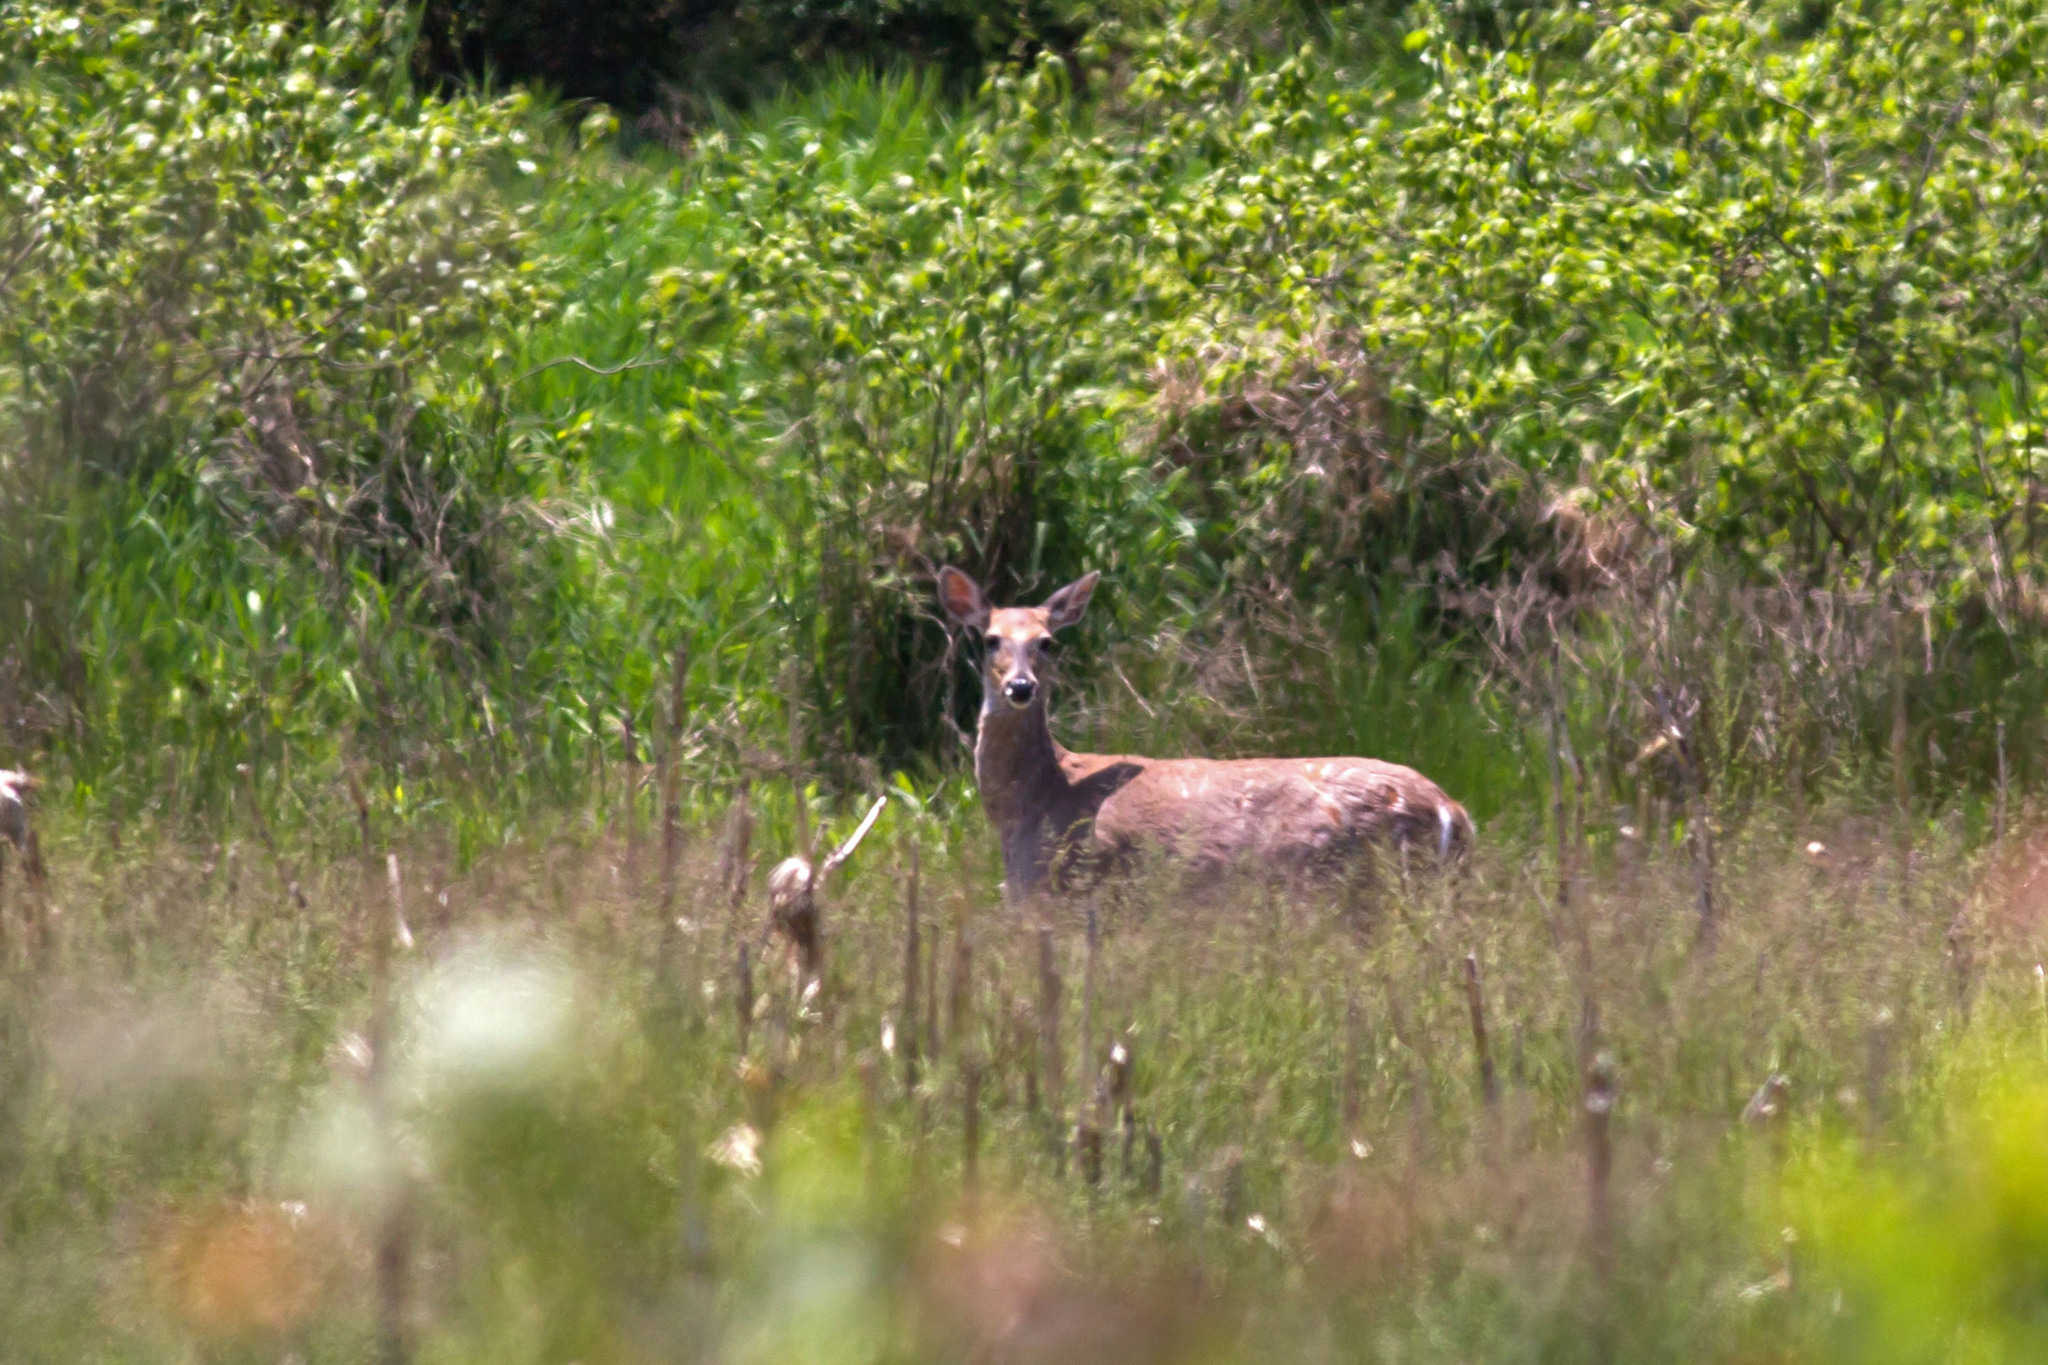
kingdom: Animalia
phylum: Chordata
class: Mammalia
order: Artiodactyla
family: Cervidae
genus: Odocoileus
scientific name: Odocoileus virginianus
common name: White-tailed deer
